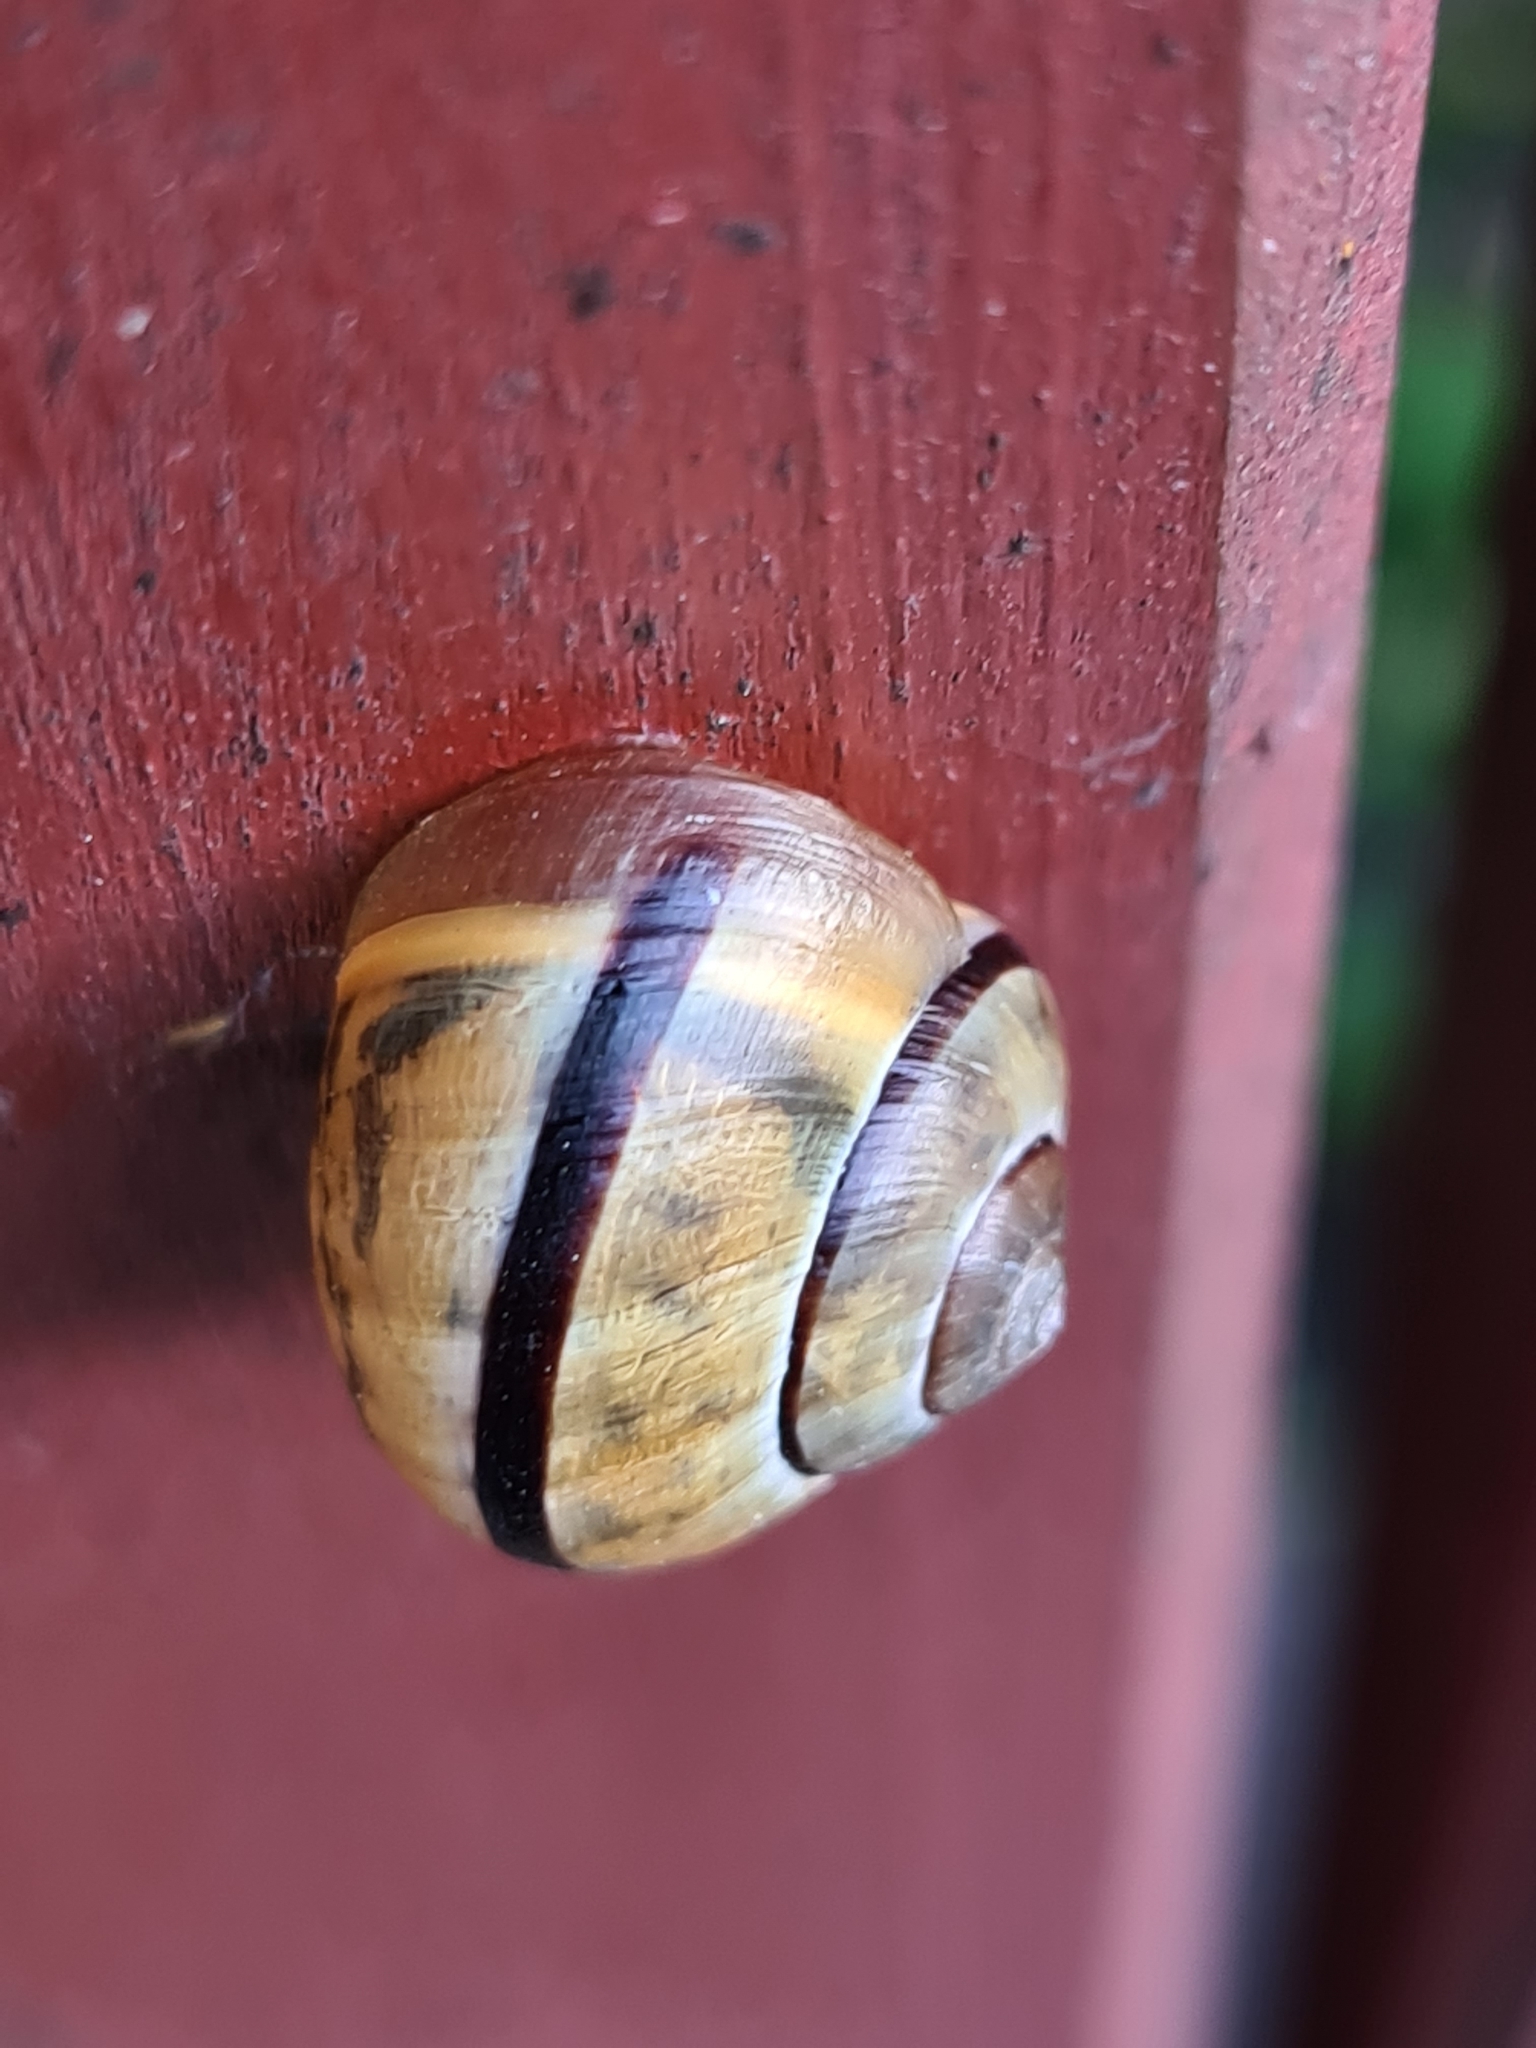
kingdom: Animalia
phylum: Mollusca
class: Gastropoda
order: Stylommatophora
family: Helicidae
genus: Cepaea
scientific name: Cepaea nemoralis
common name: Grovesnail
